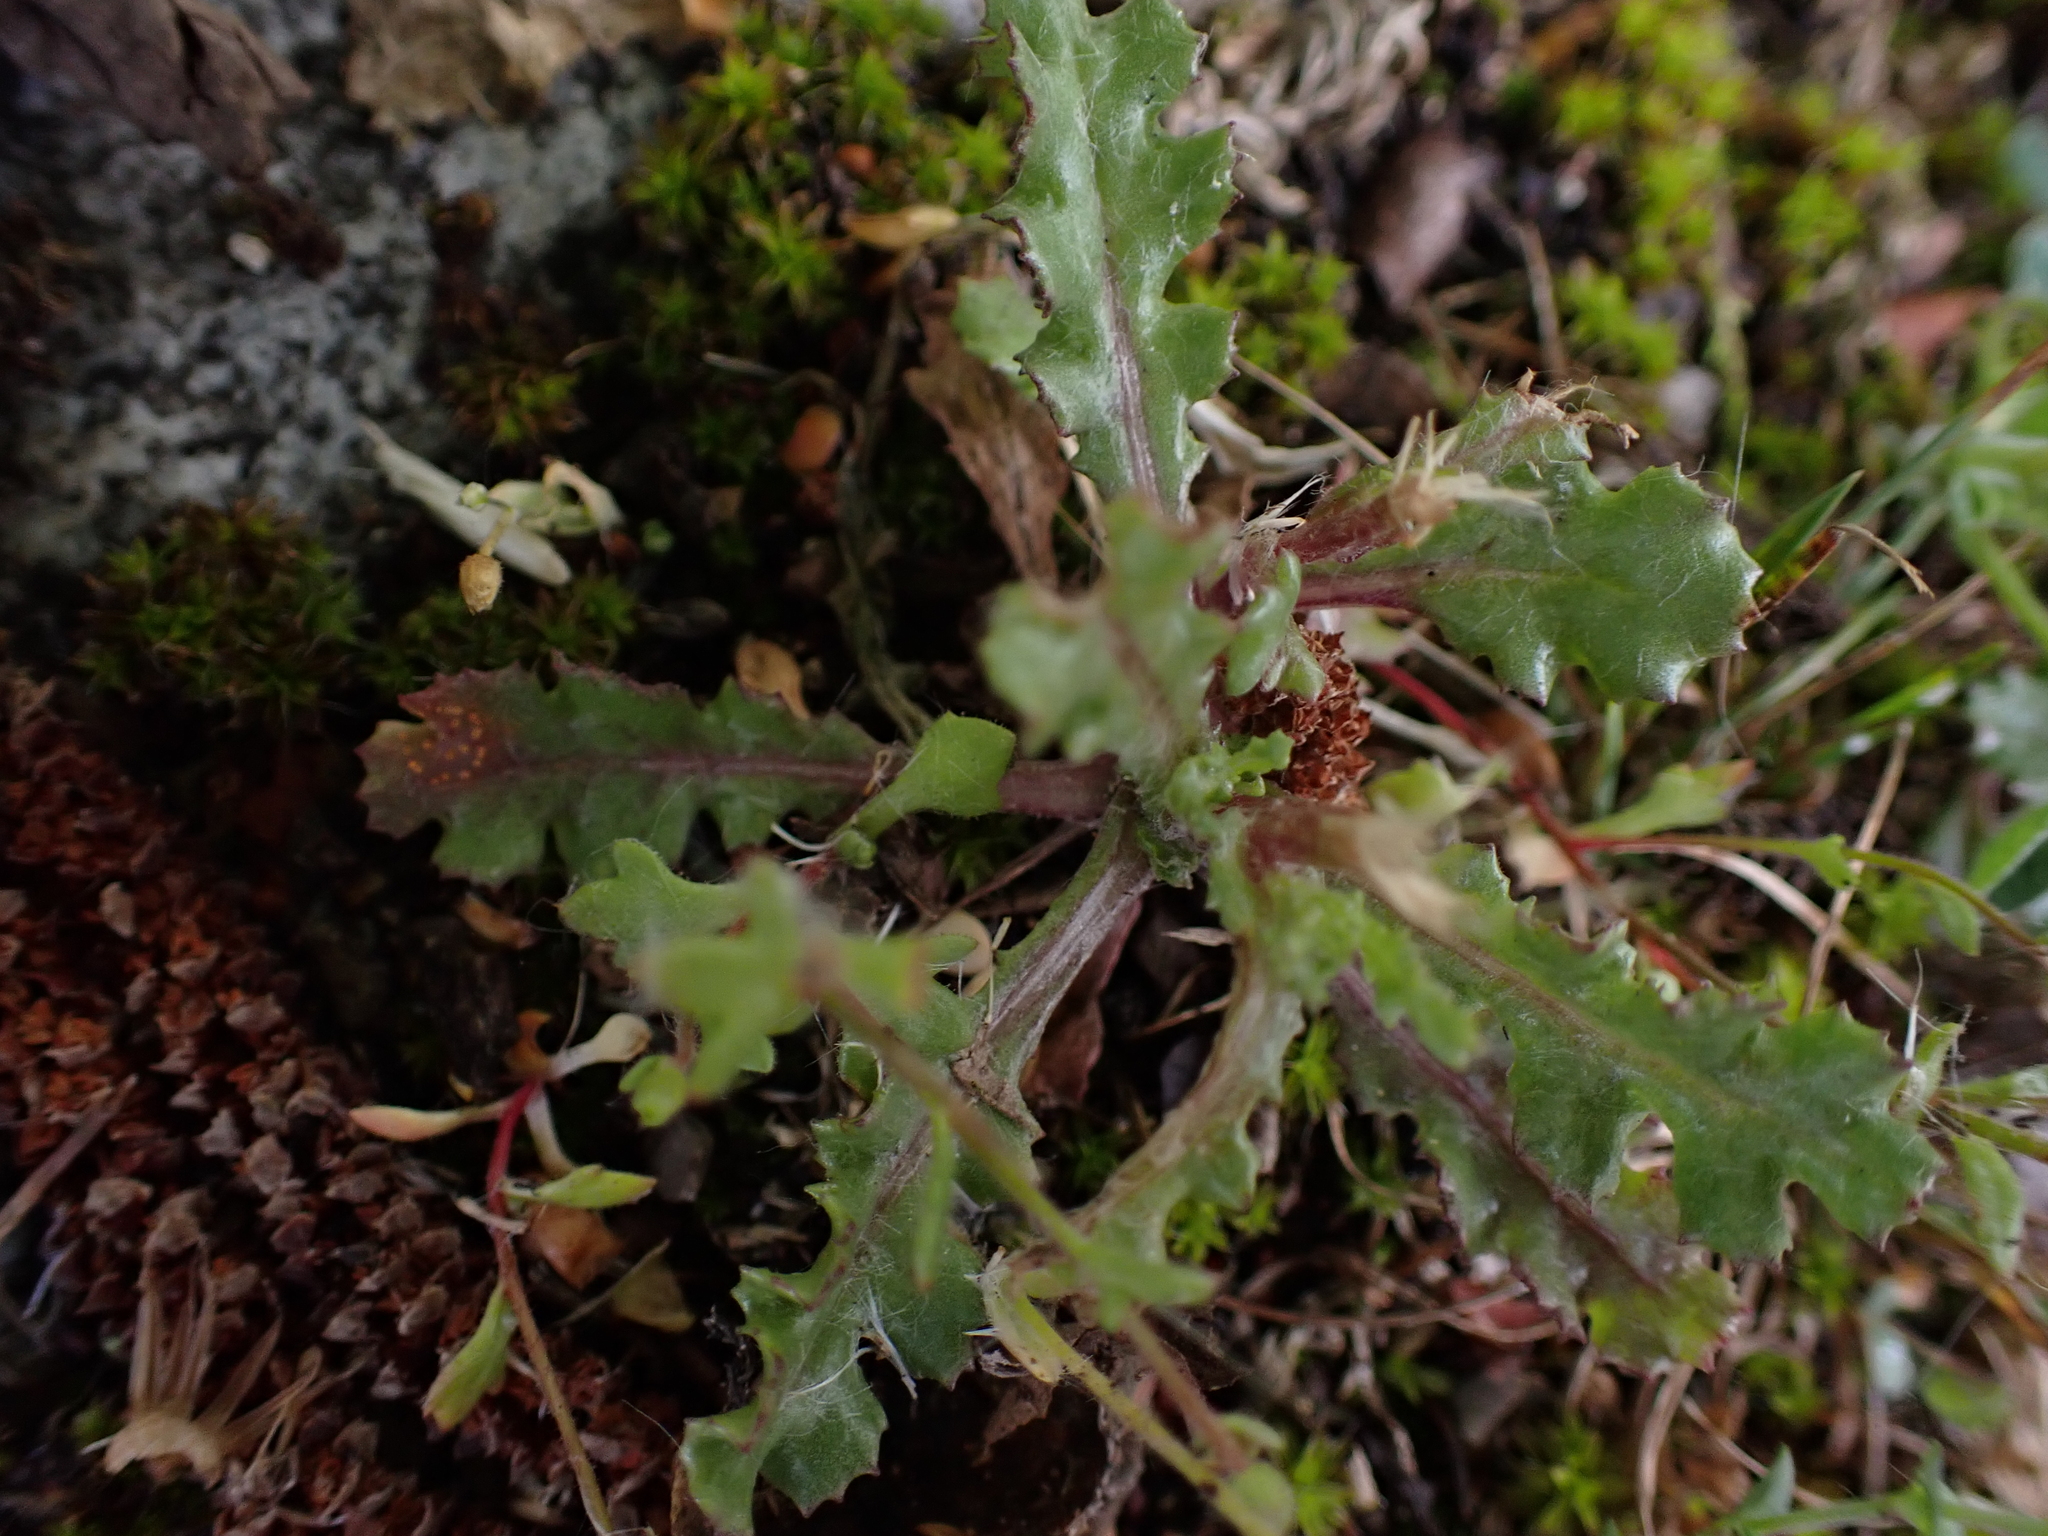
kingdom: Plantae
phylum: Tracheophyta
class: Magnoliopsida
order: Asterales
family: Asteraceae
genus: Senecio
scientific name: Senecio vulgaris
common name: Old-man-in-the-spring
